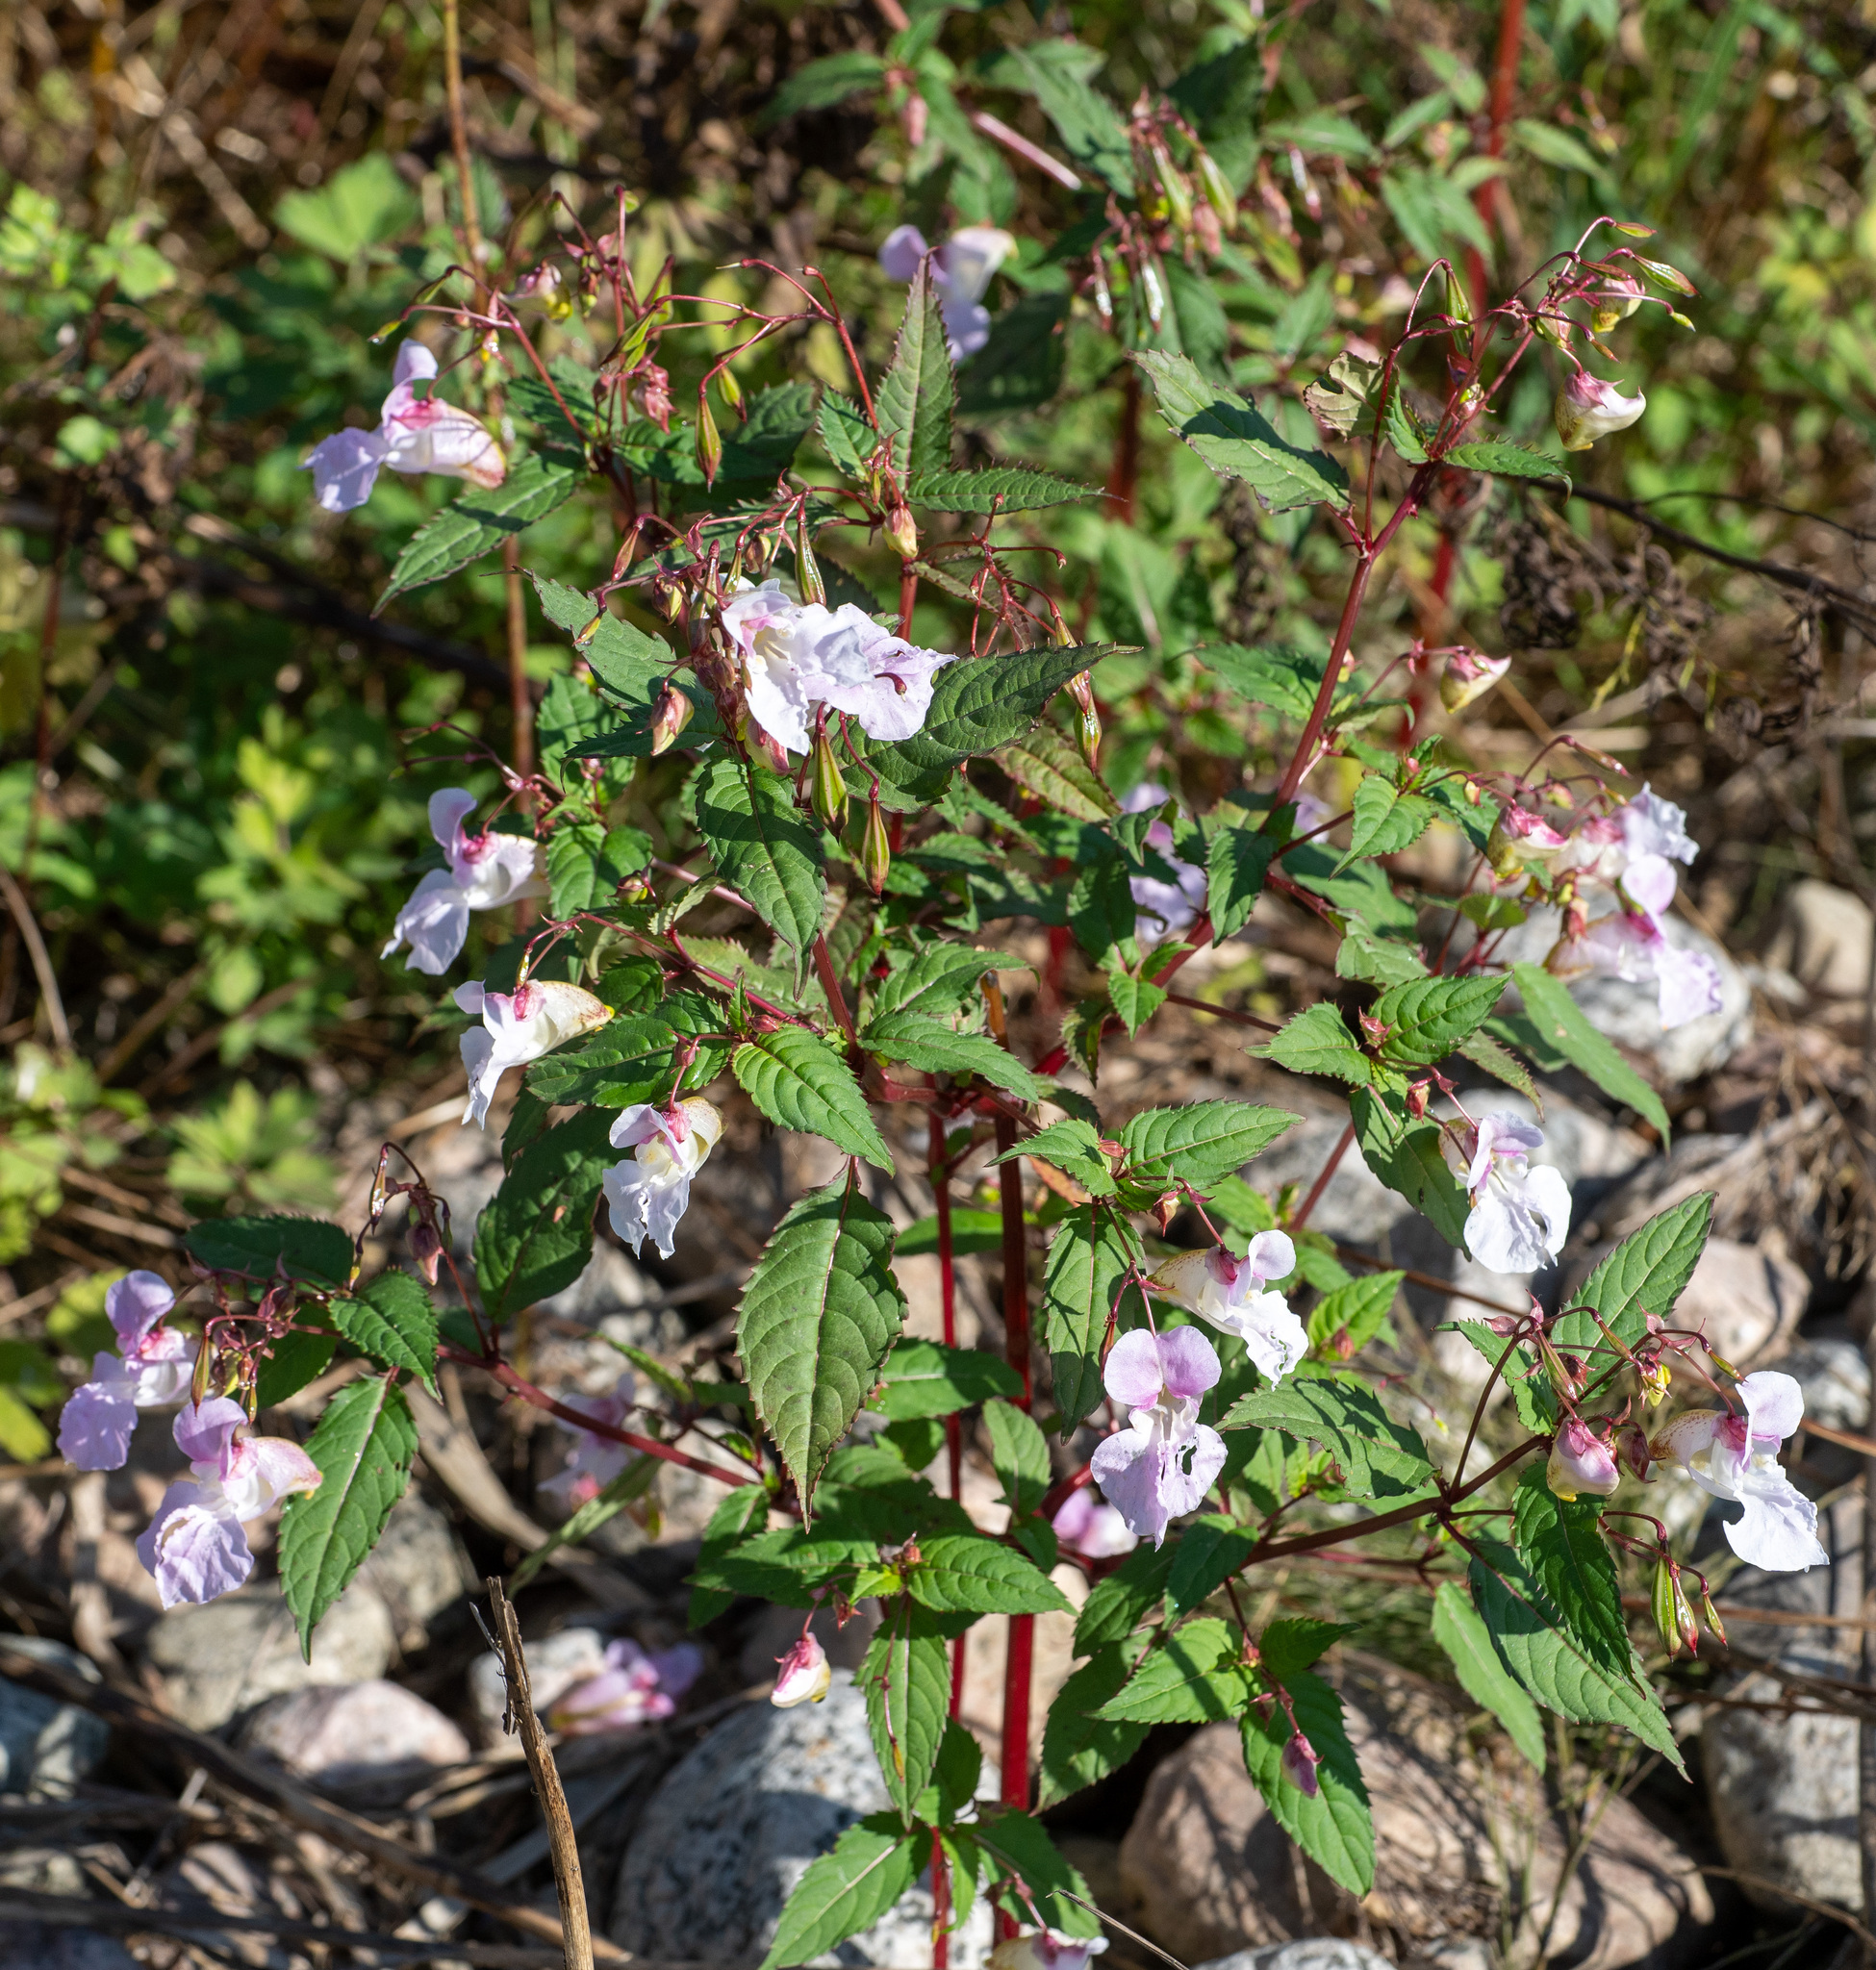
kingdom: Plantae
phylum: Tracheophyta
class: Magnoliopsida
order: Ericales
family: Balsaminaceae
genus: Impatiens
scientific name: Impatiens glandulifera
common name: Himalayan balsam
